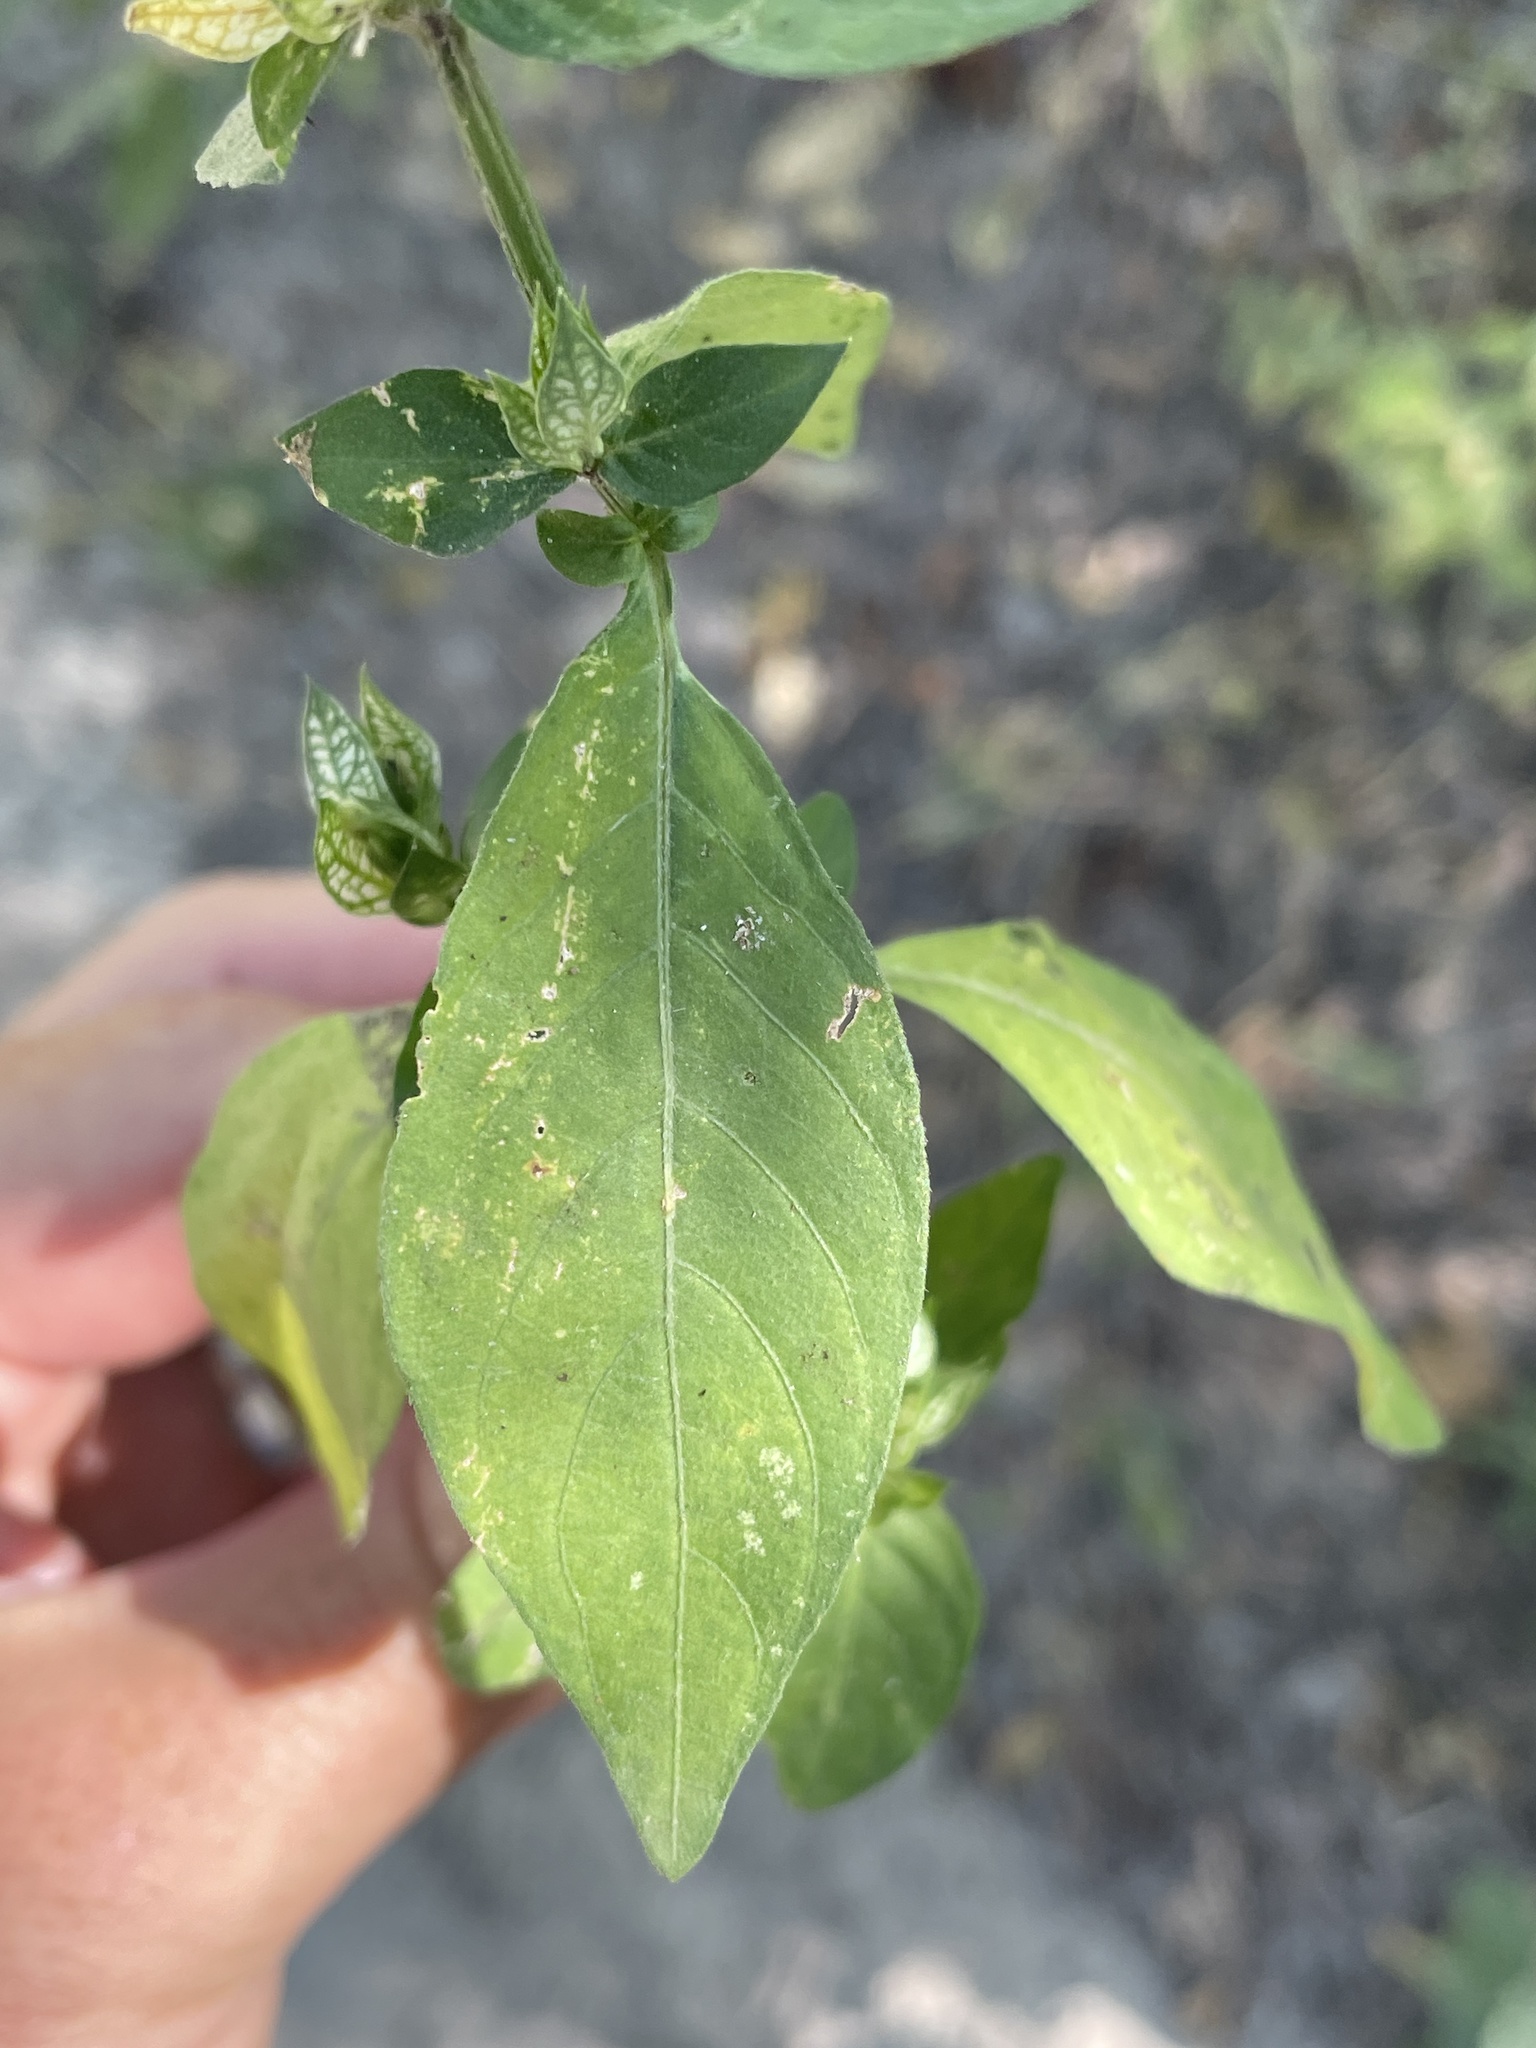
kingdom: Plantae
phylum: Tracheophyta
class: Magnoliopsida
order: Lamiales
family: Acanthaceae
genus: Justicia
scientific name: Justicia betonica
